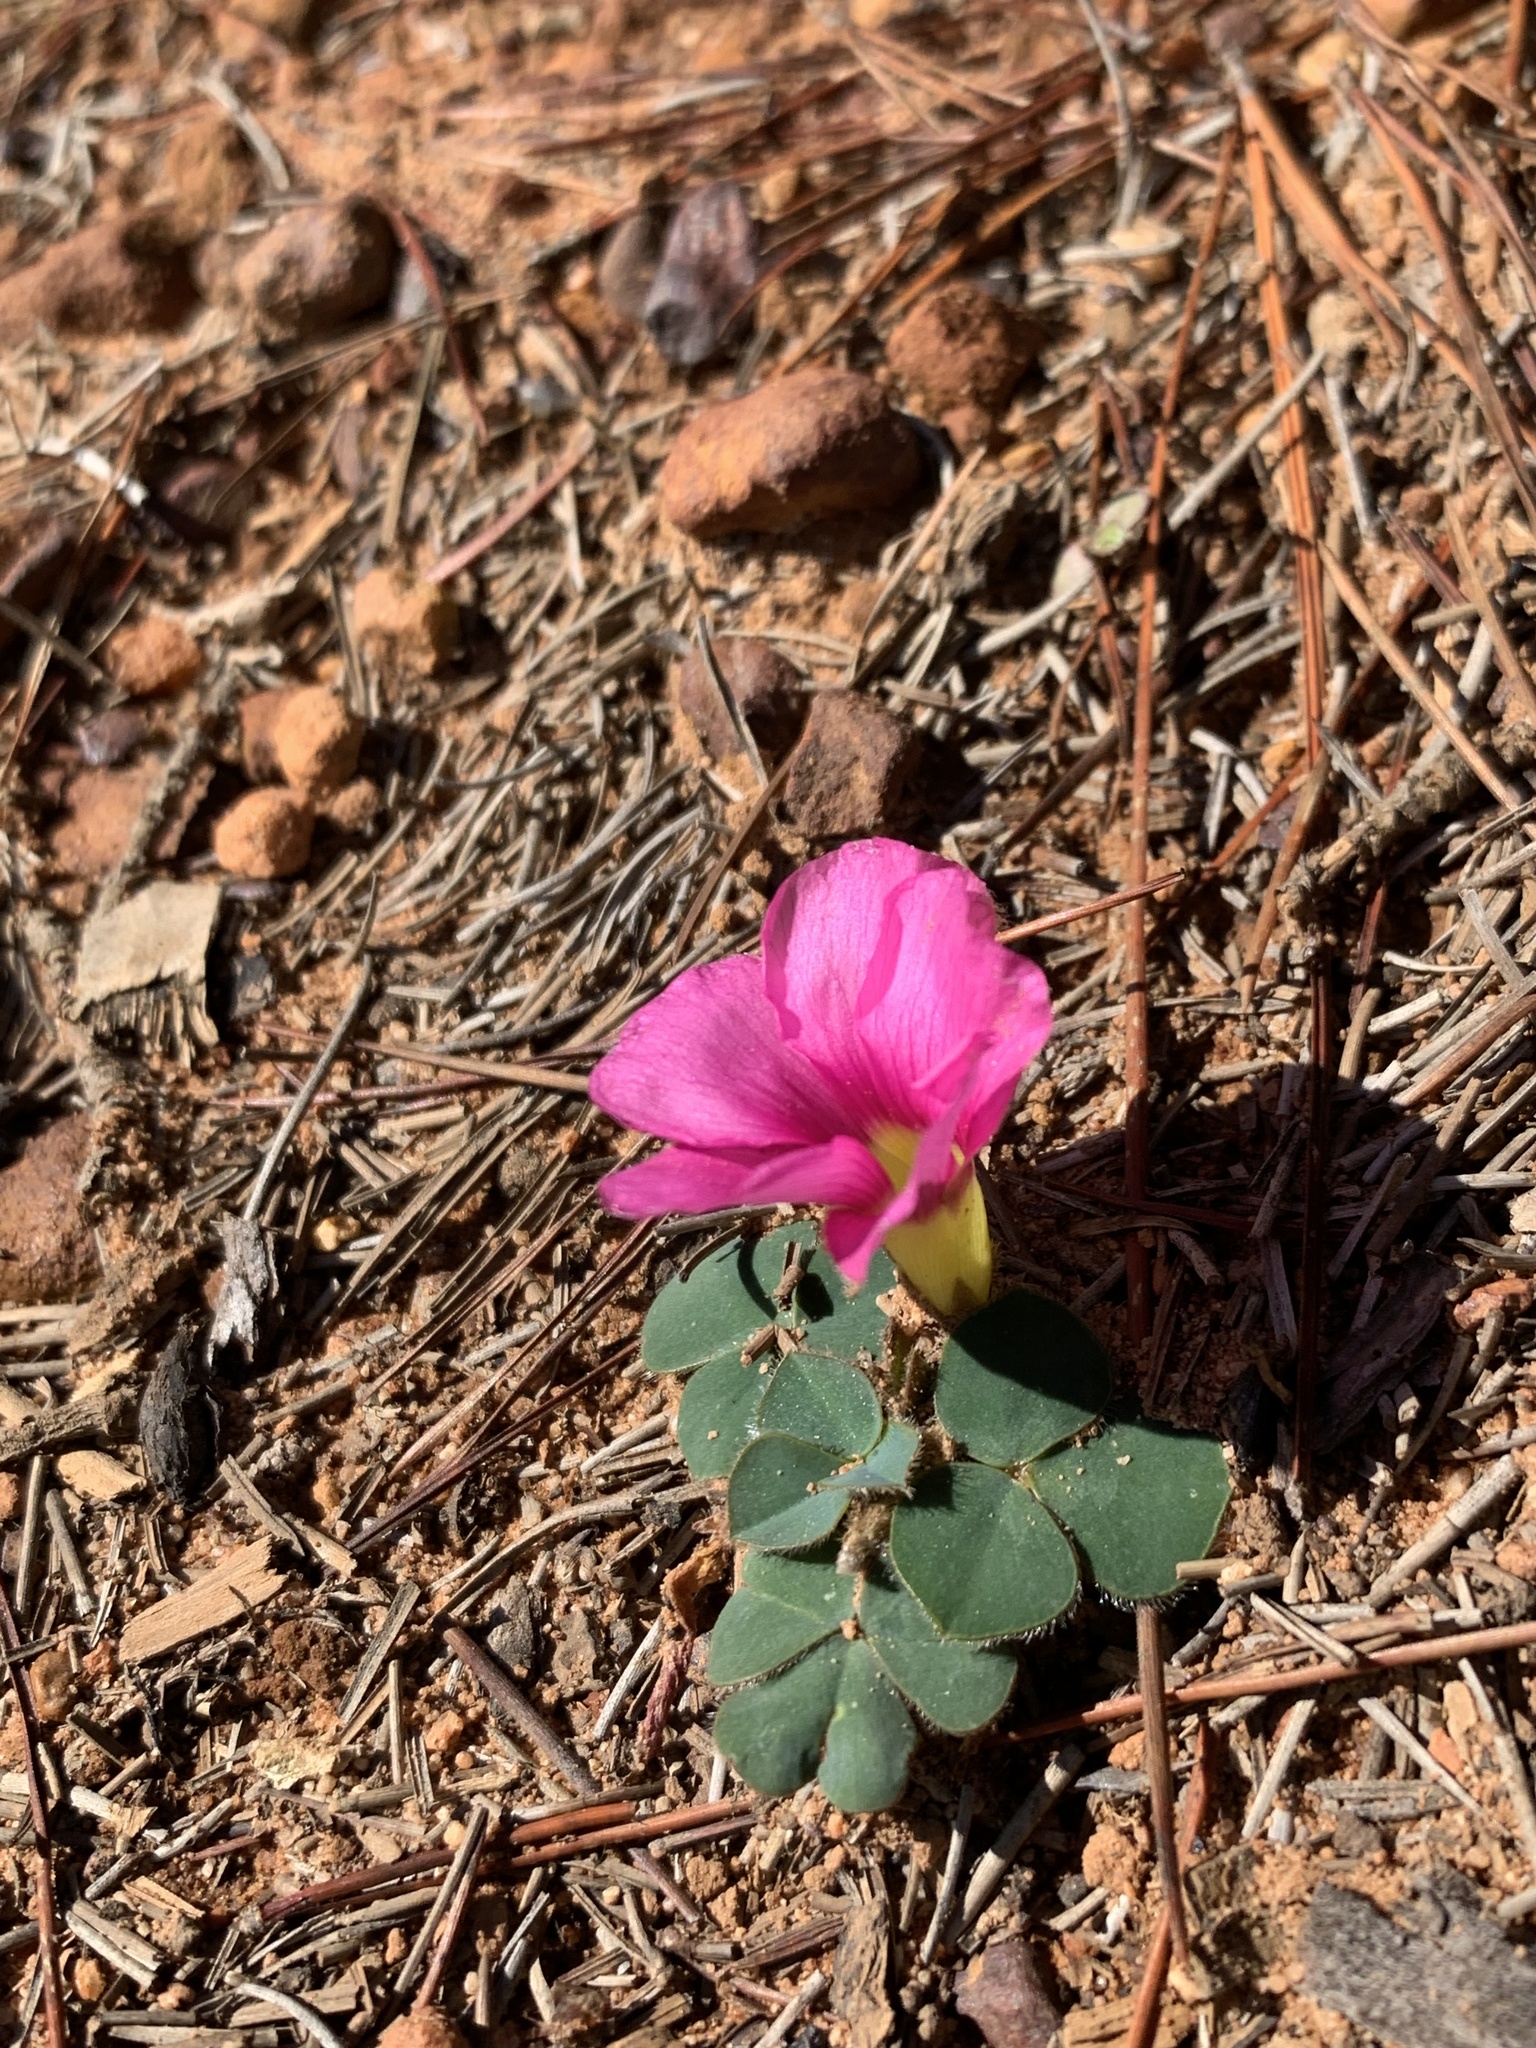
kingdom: Plantae
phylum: Tracheophyta
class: Magnoliopsida
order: Oxalidales
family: Oxalidaceae
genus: Oxalis
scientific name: Oxalis purpurea
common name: Purple woodsorrel
